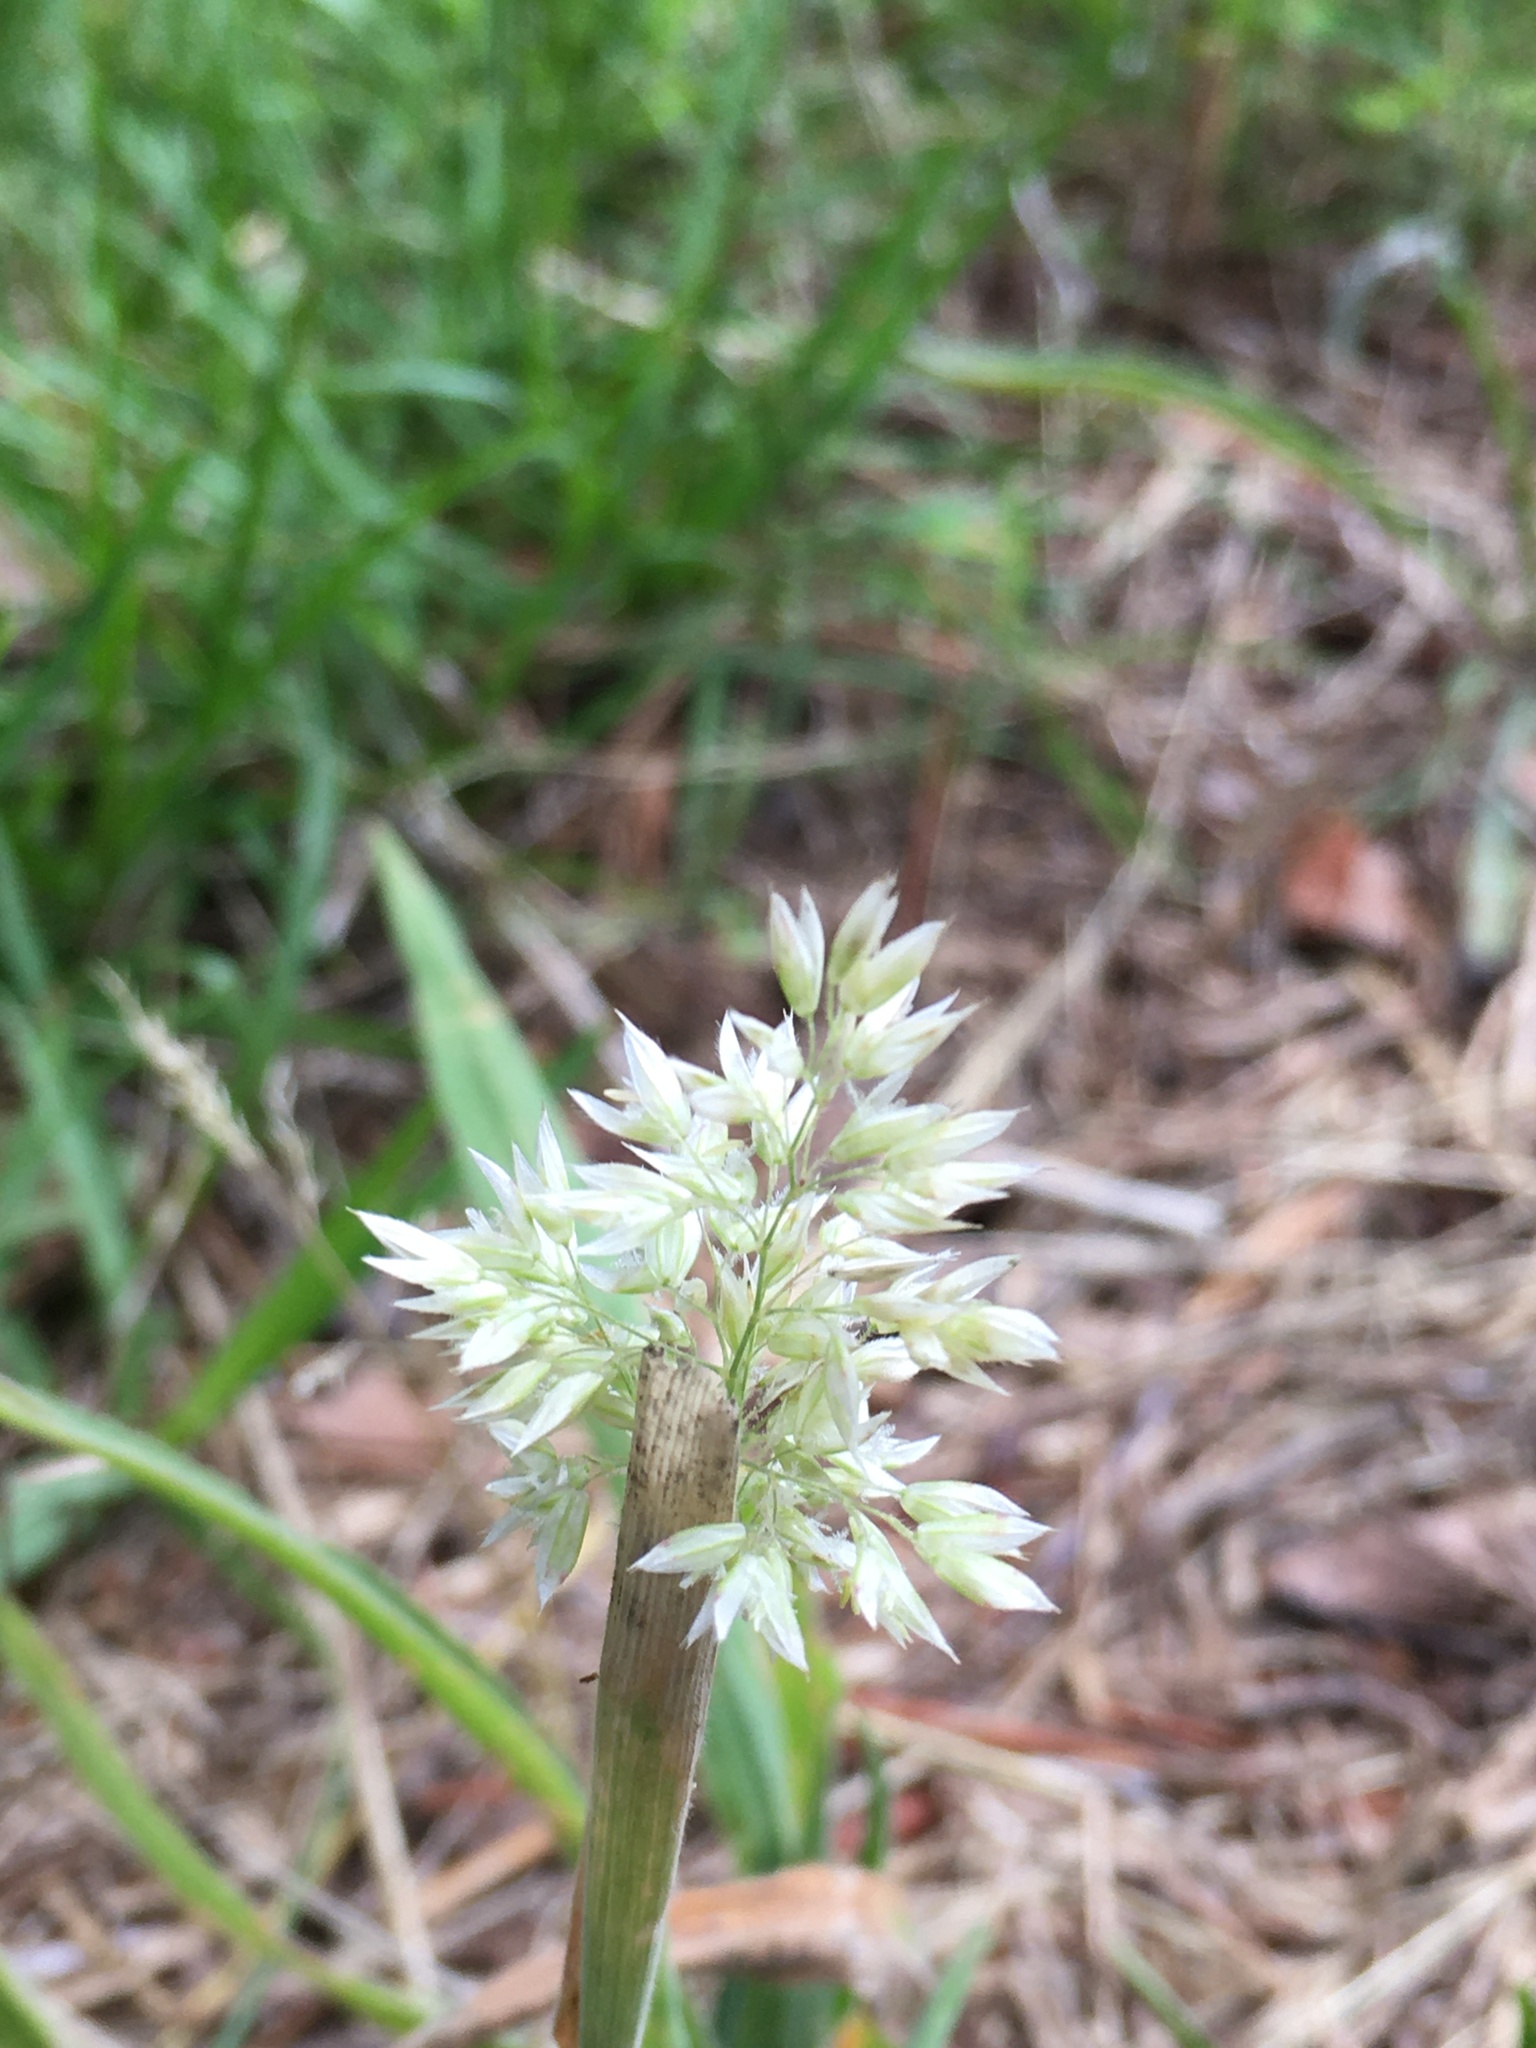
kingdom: Plantae
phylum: Tracheophyta
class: Liliopsida
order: Poales
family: Poaceae
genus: Holcus
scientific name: Holcus lanatus
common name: Yorkshire-fog
